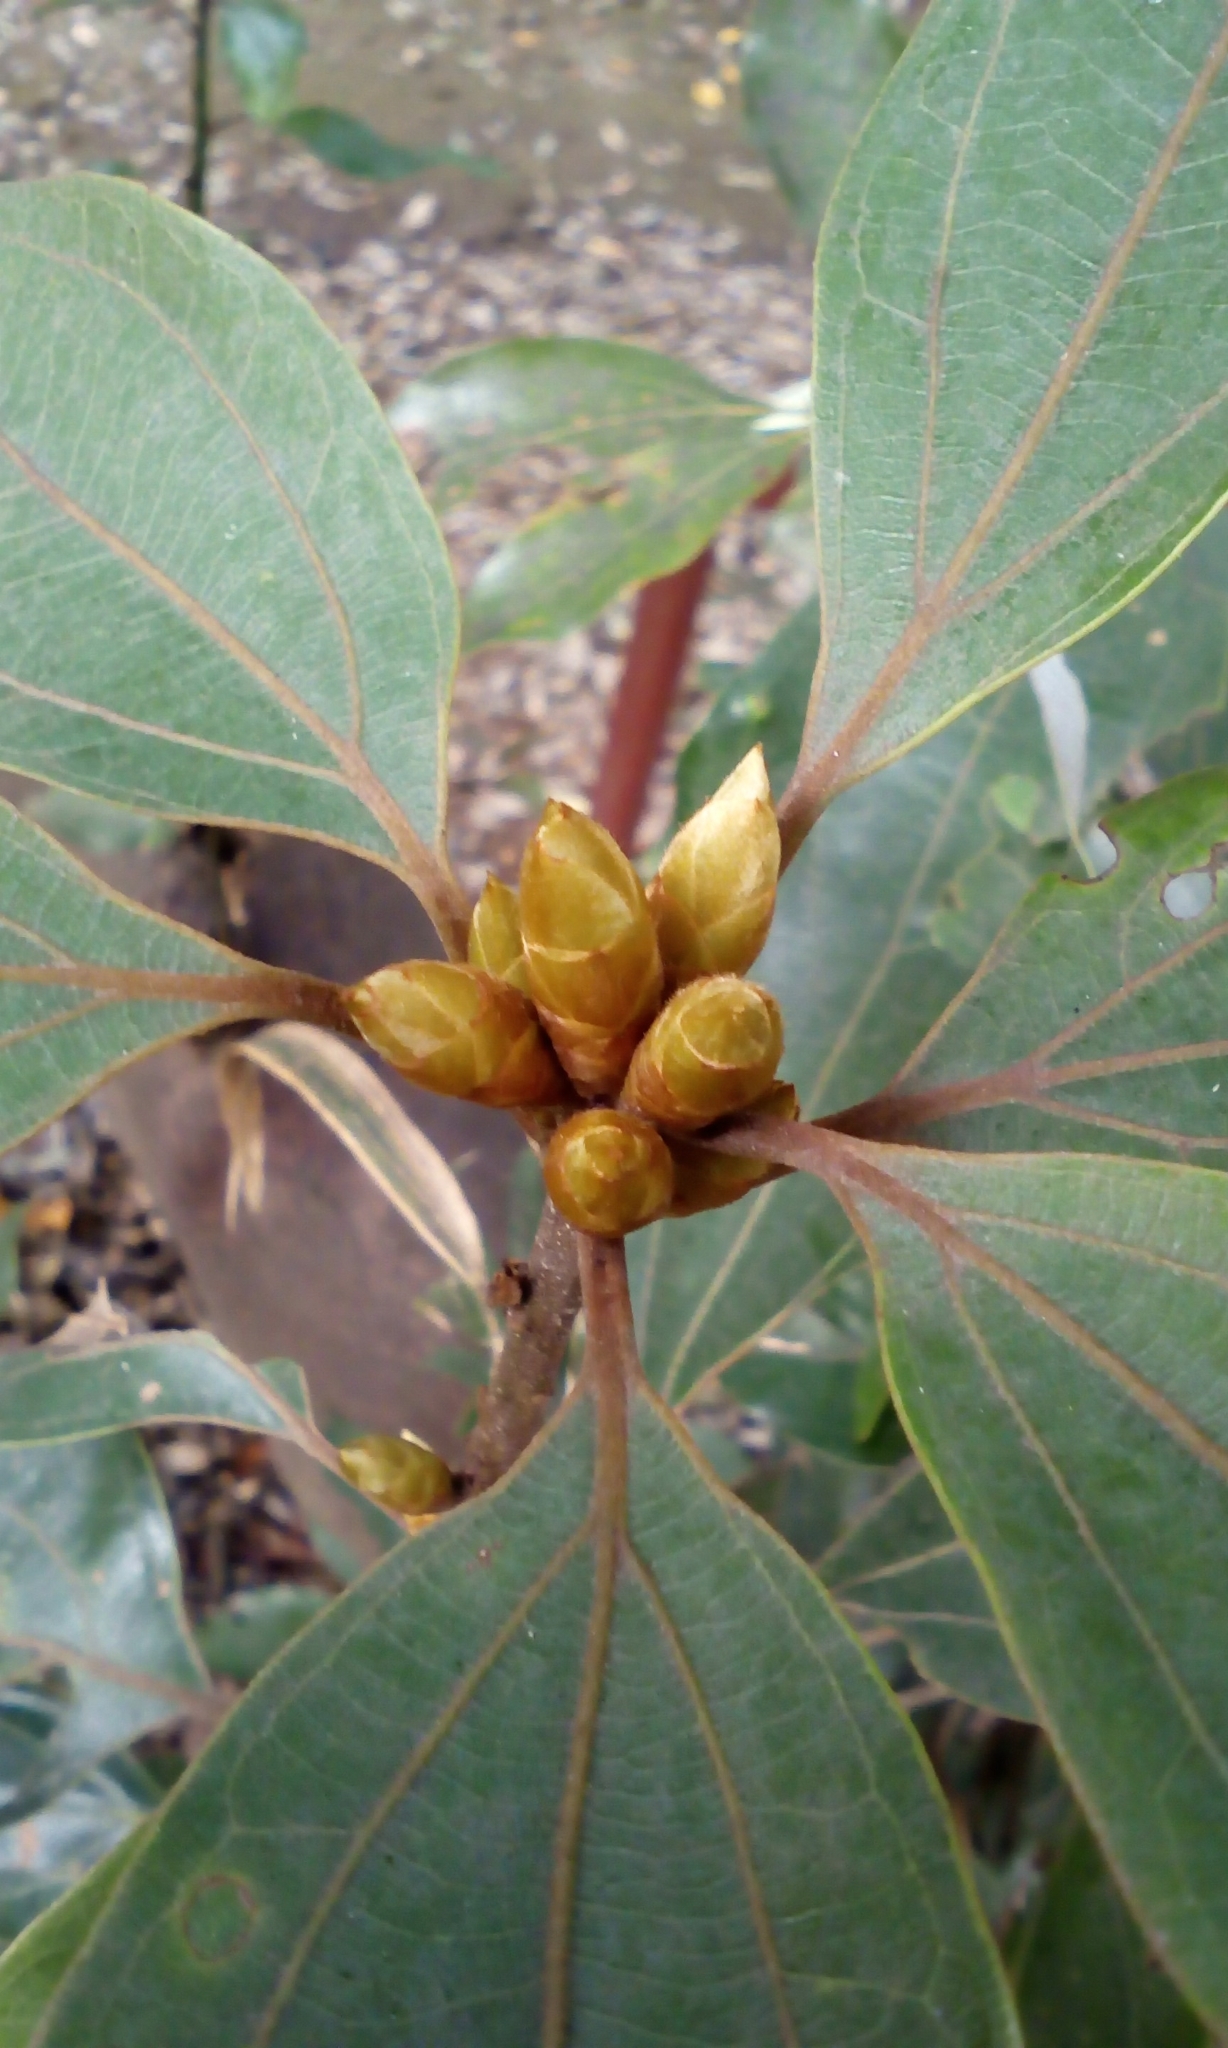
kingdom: Plantae
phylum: Tracheophyta
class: Magnoliopsida
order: Laurales
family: Lauraceae
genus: Neolitsea
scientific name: Neolitsea sericea
